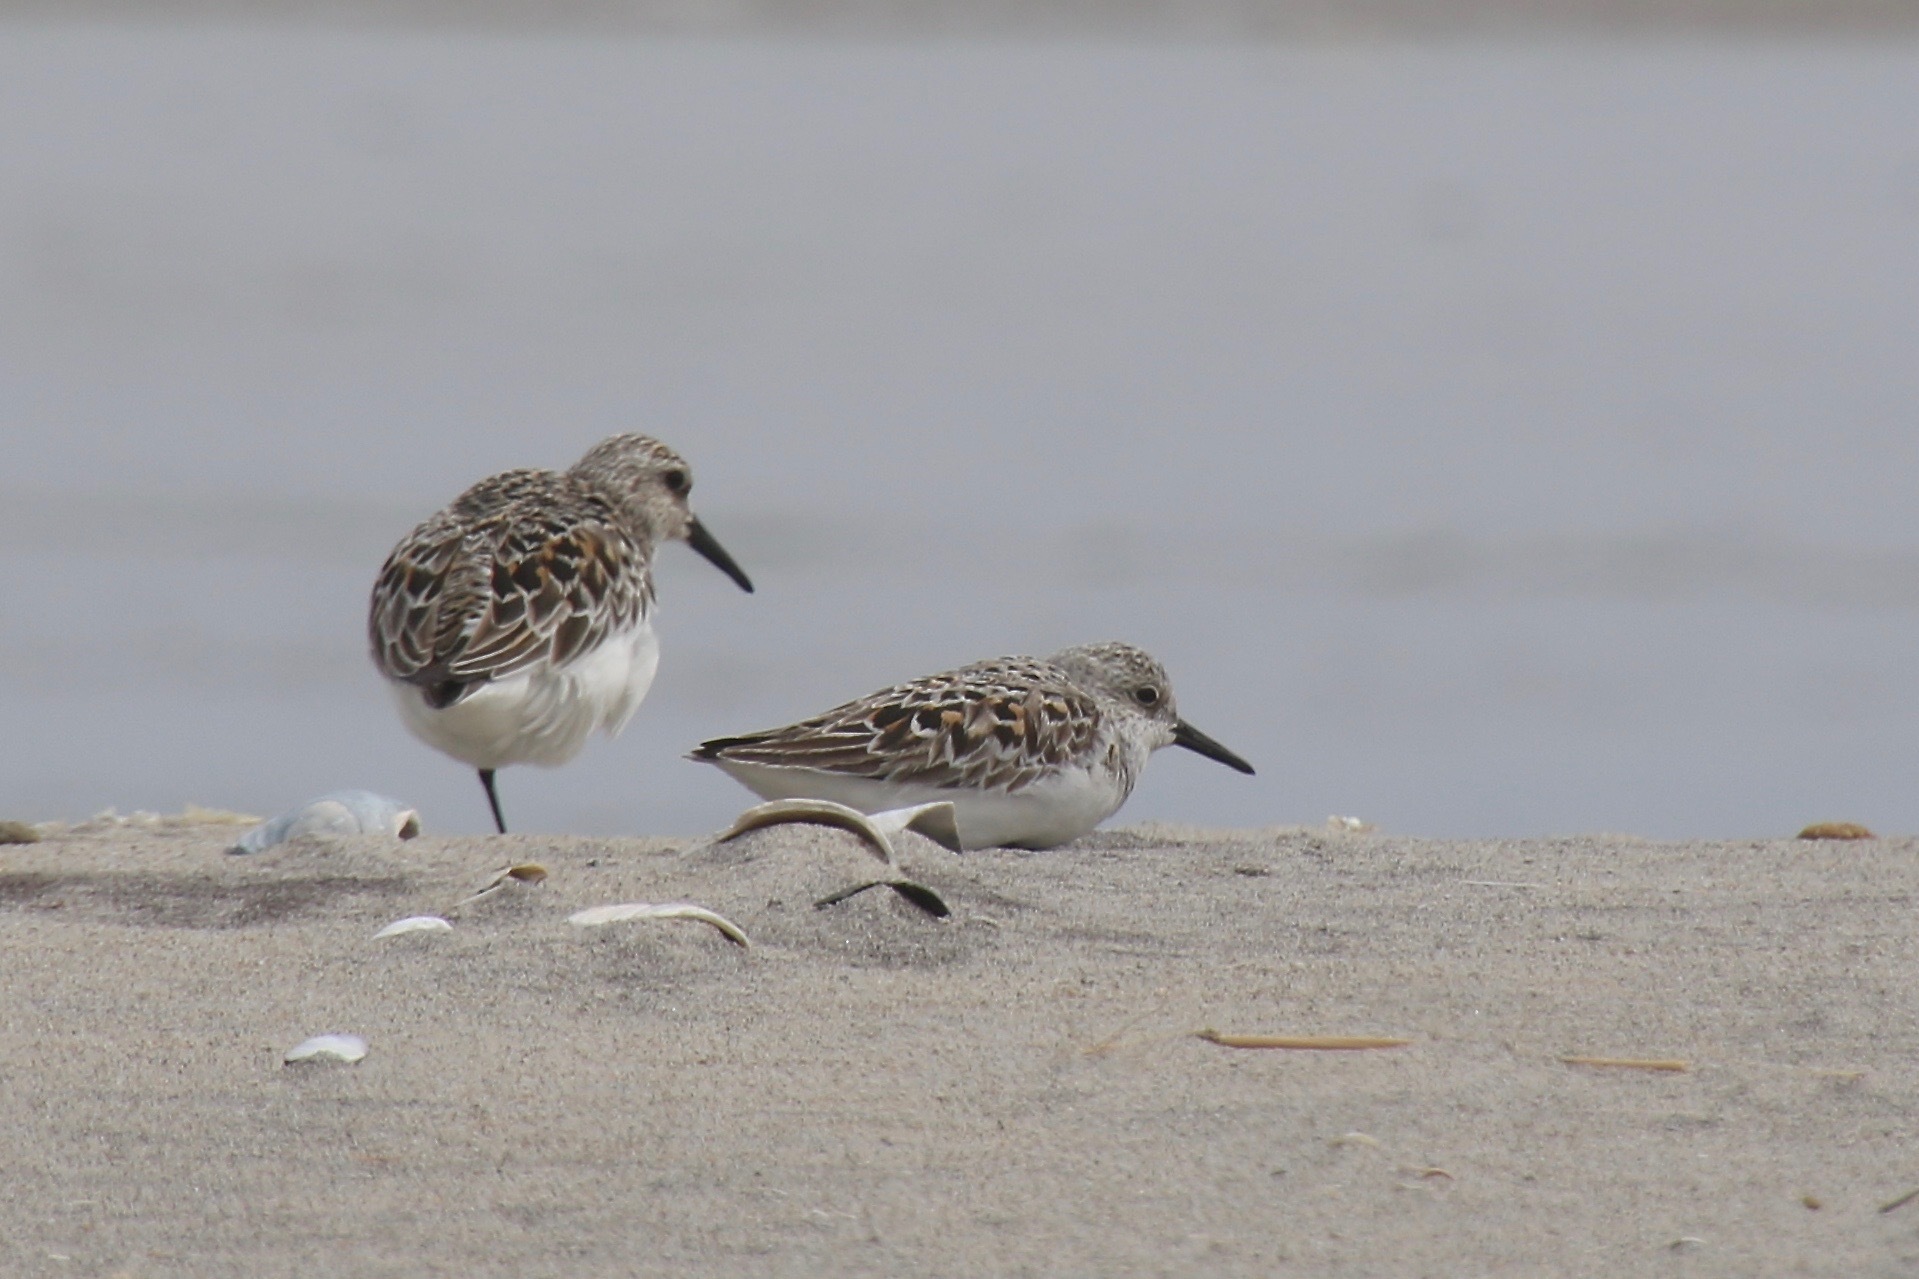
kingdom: Animalia
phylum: Chordata
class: Aves
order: Charadriiformes
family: Scolopacidae
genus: Calidris
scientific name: Calidris alba
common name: Sanderling
